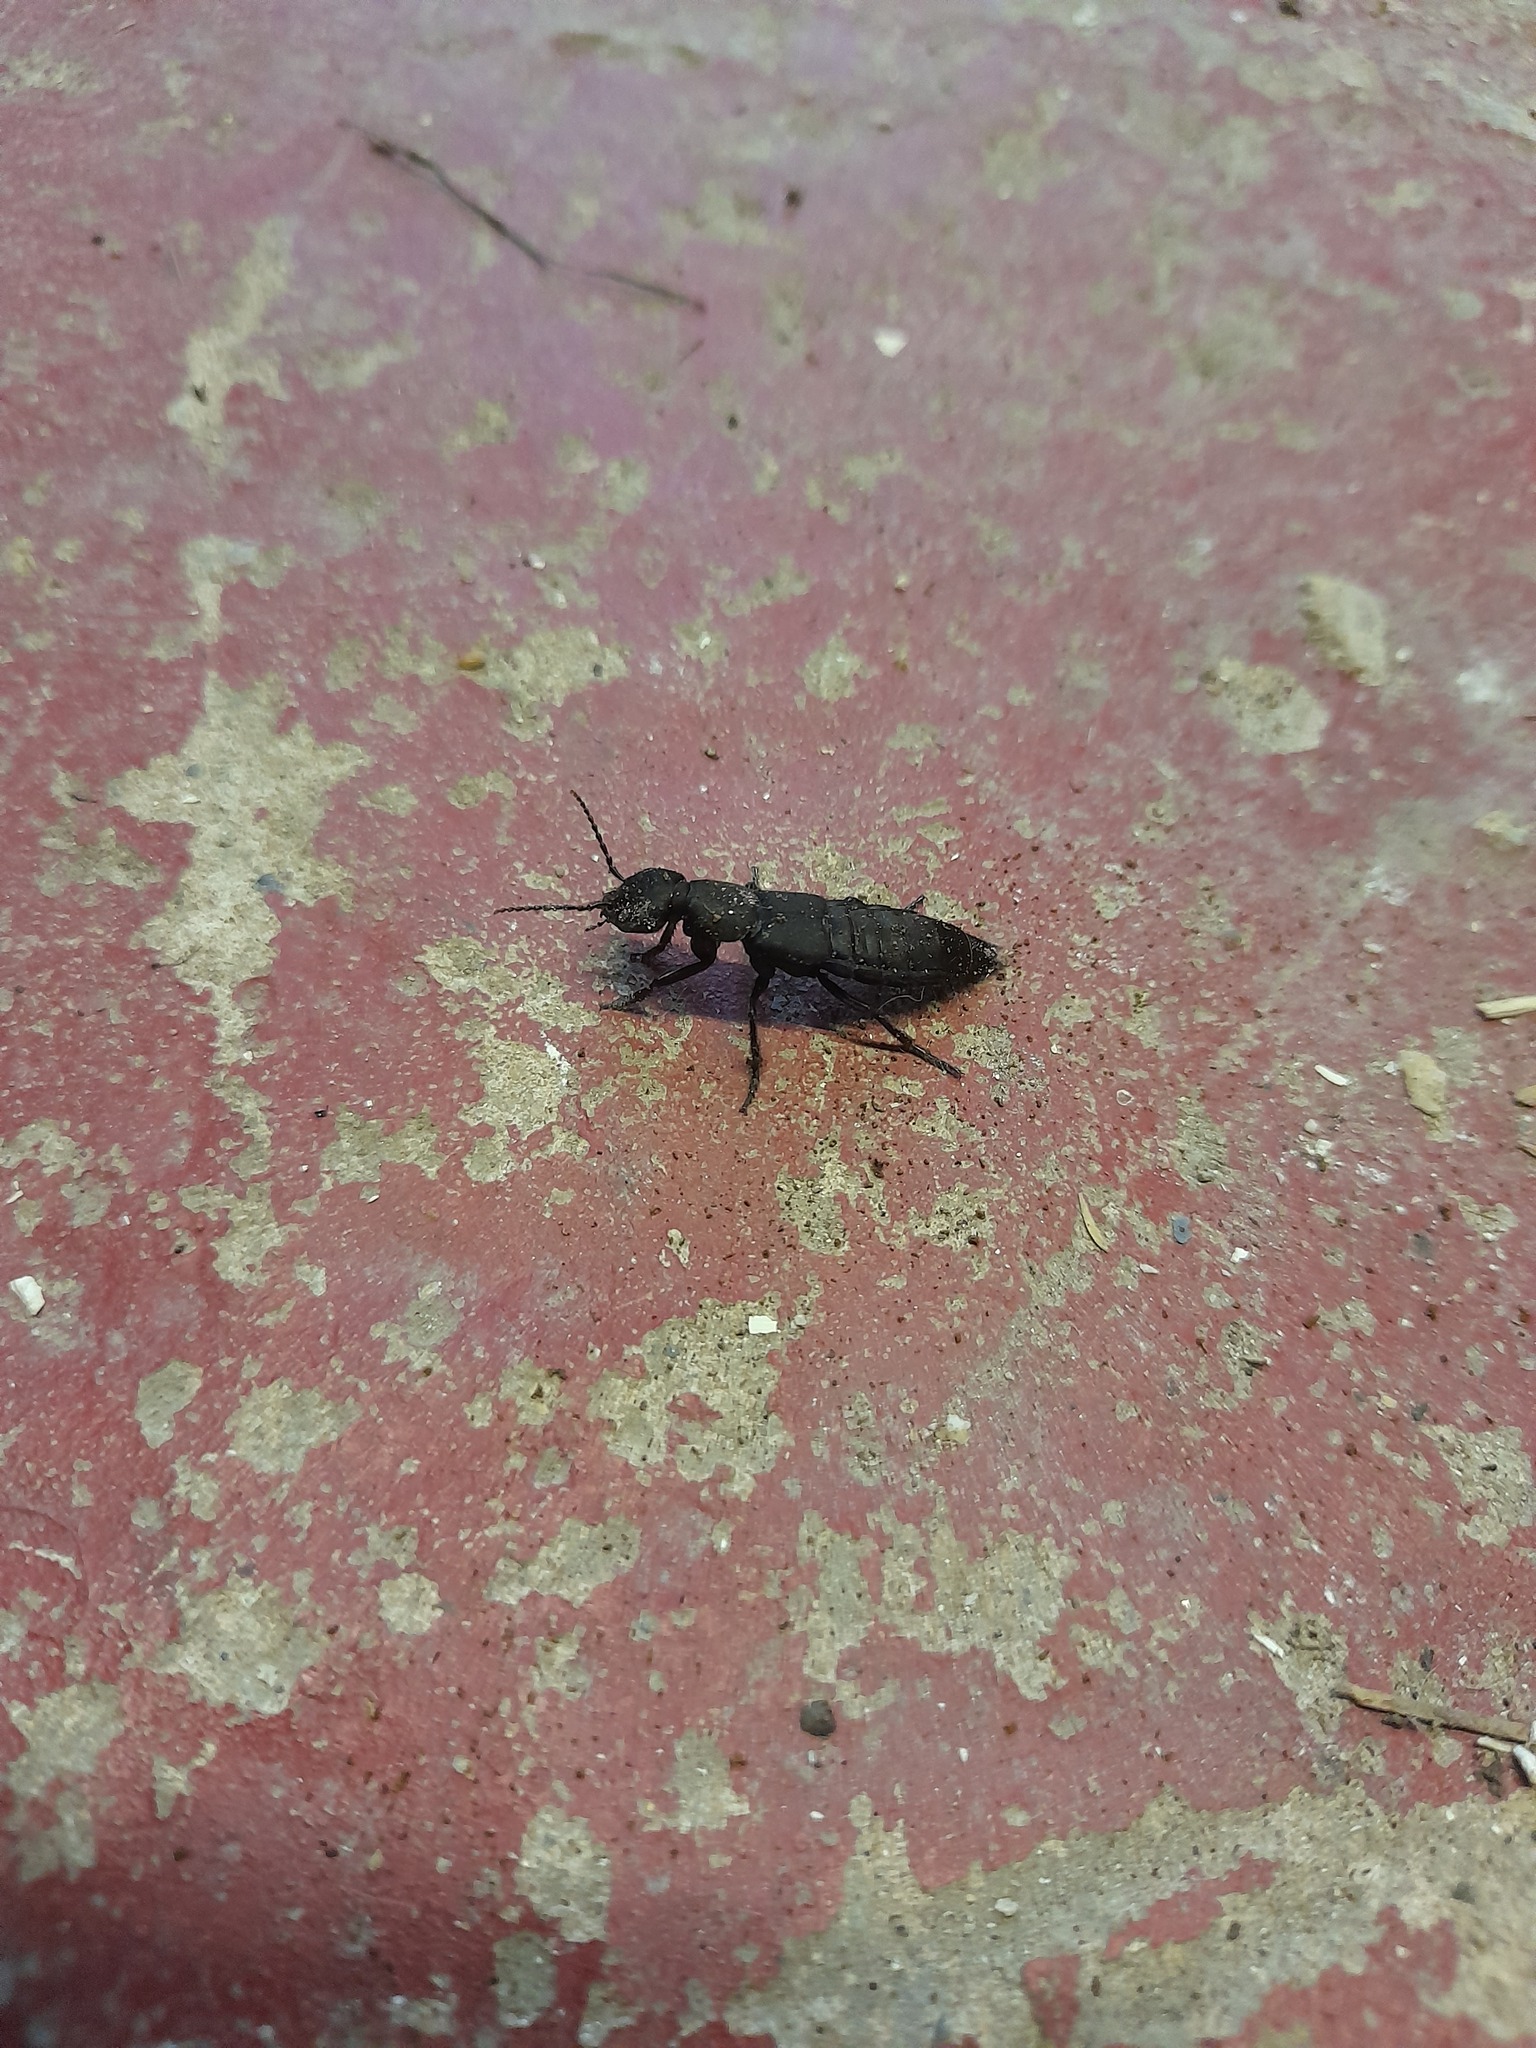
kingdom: Animalia
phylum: Arthropoda
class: Insecta
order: Coleoptera
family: Staphylinidae
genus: Ocypus
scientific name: Ocypus olens
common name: Devil's coach-horse
